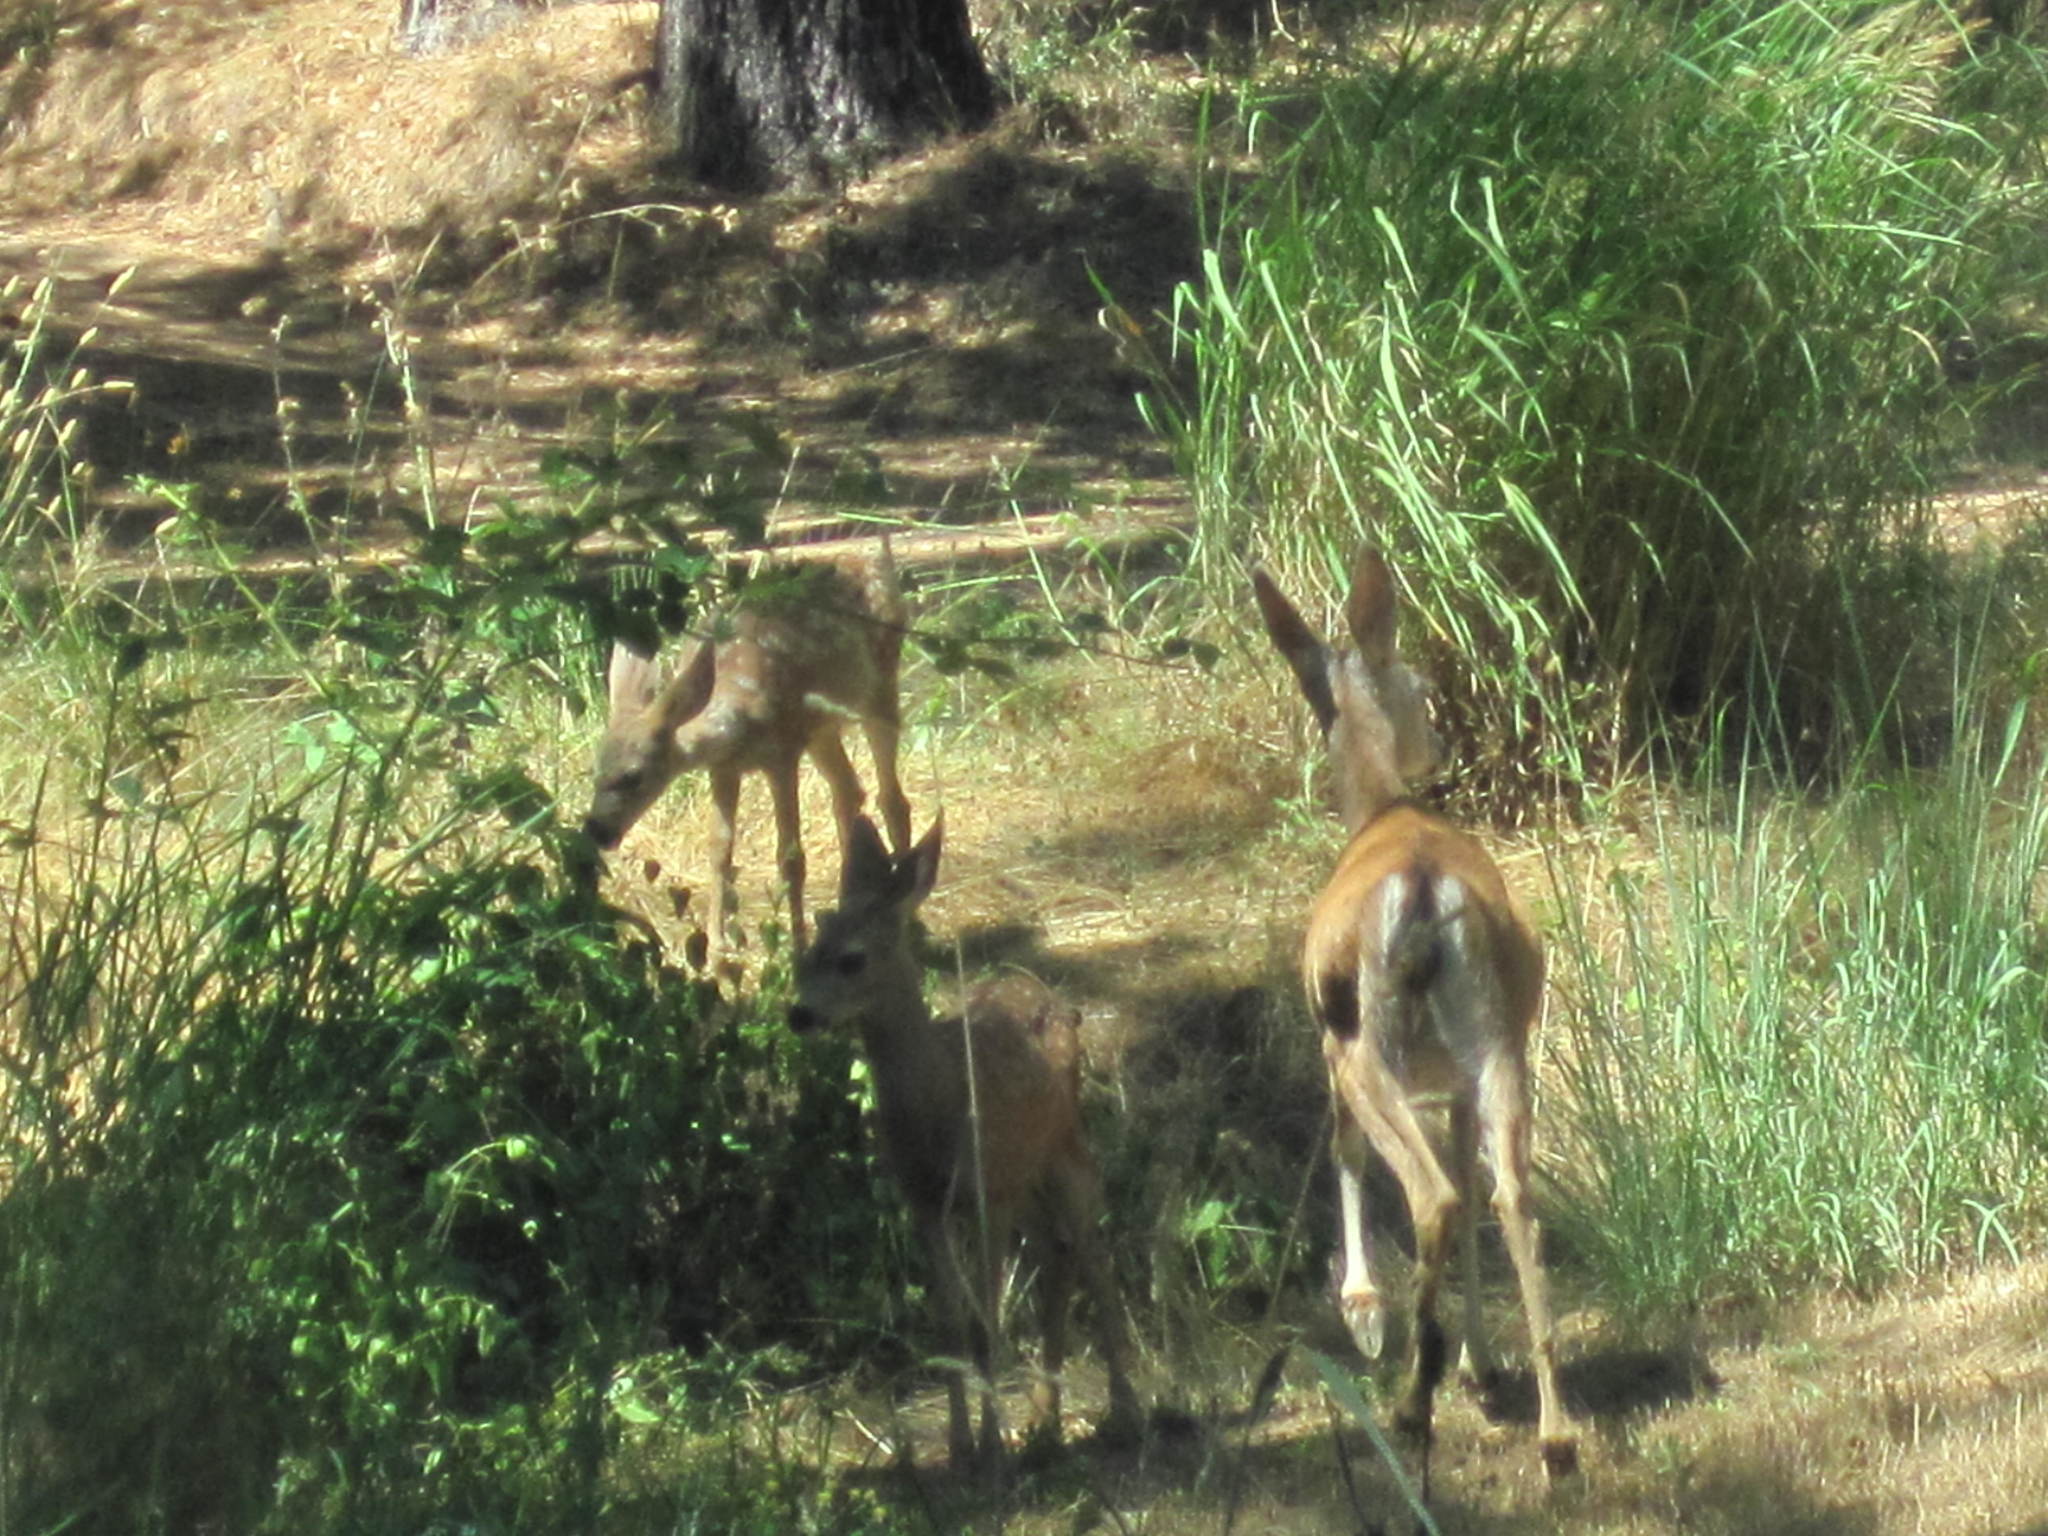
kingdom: Animalia
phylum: Chordata
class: Mammalia
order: Artiodactyla
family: Cervidae
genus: Odocoileus
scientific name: Odocoileus hemionus
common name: Mule deer
